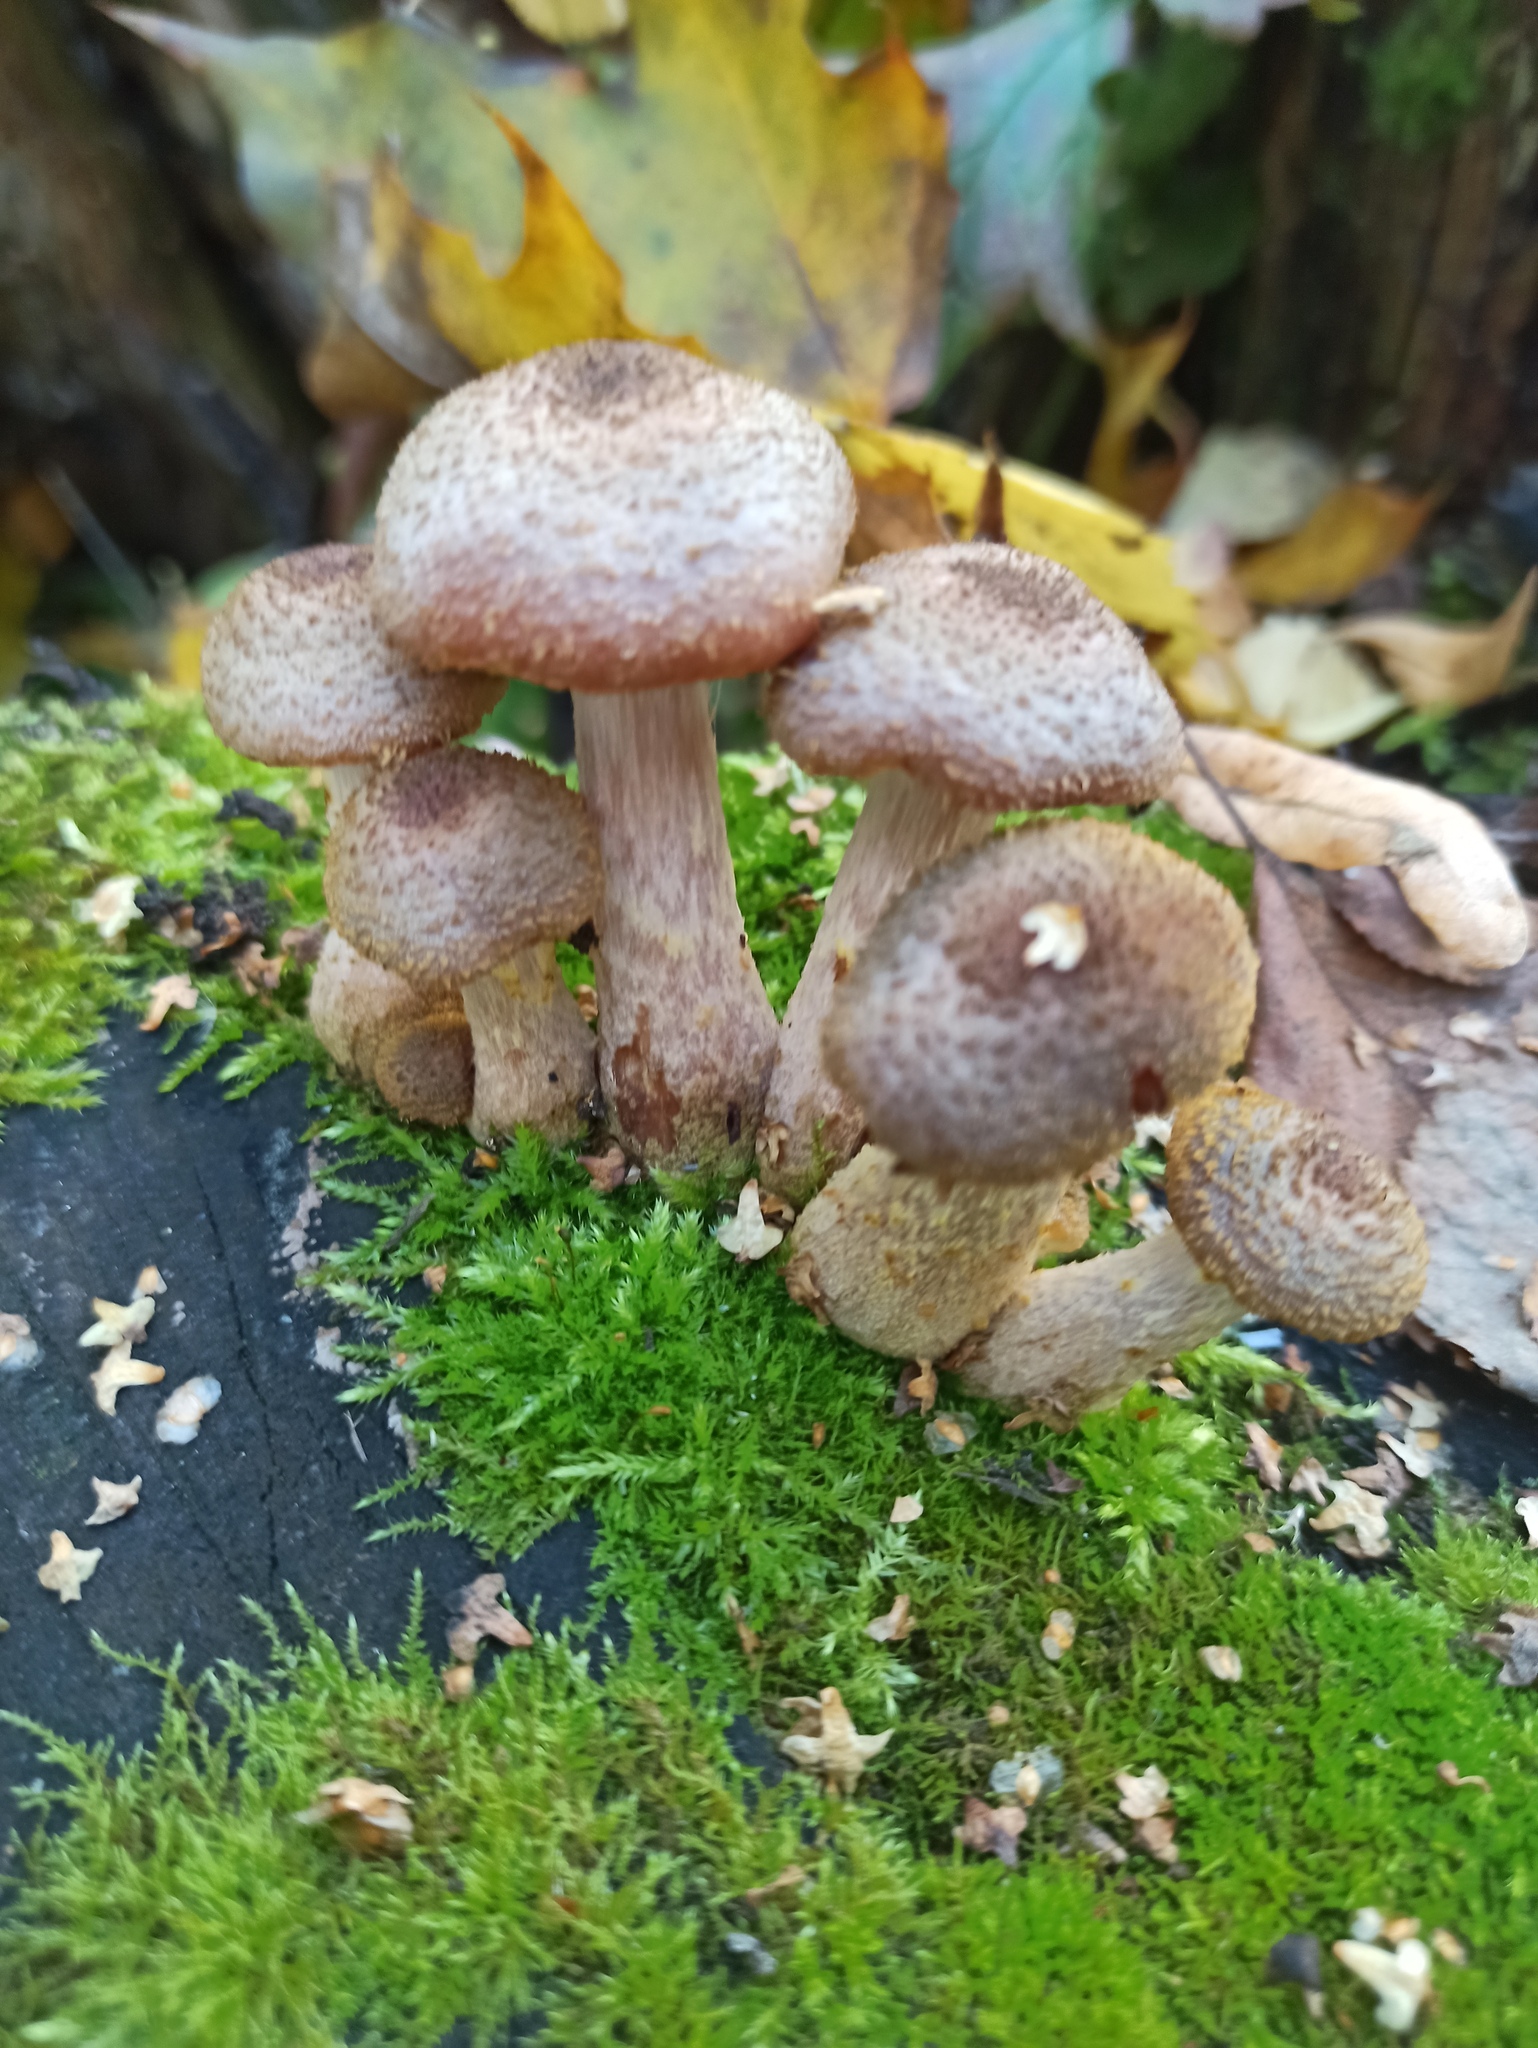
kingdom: Fungi
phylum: Basidiomycota
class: Agaricomycetes
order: Agaricales
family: Physalacriaceae
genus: Armillaria
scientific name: Armillaria gallica
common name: Bulbous honey fungus
